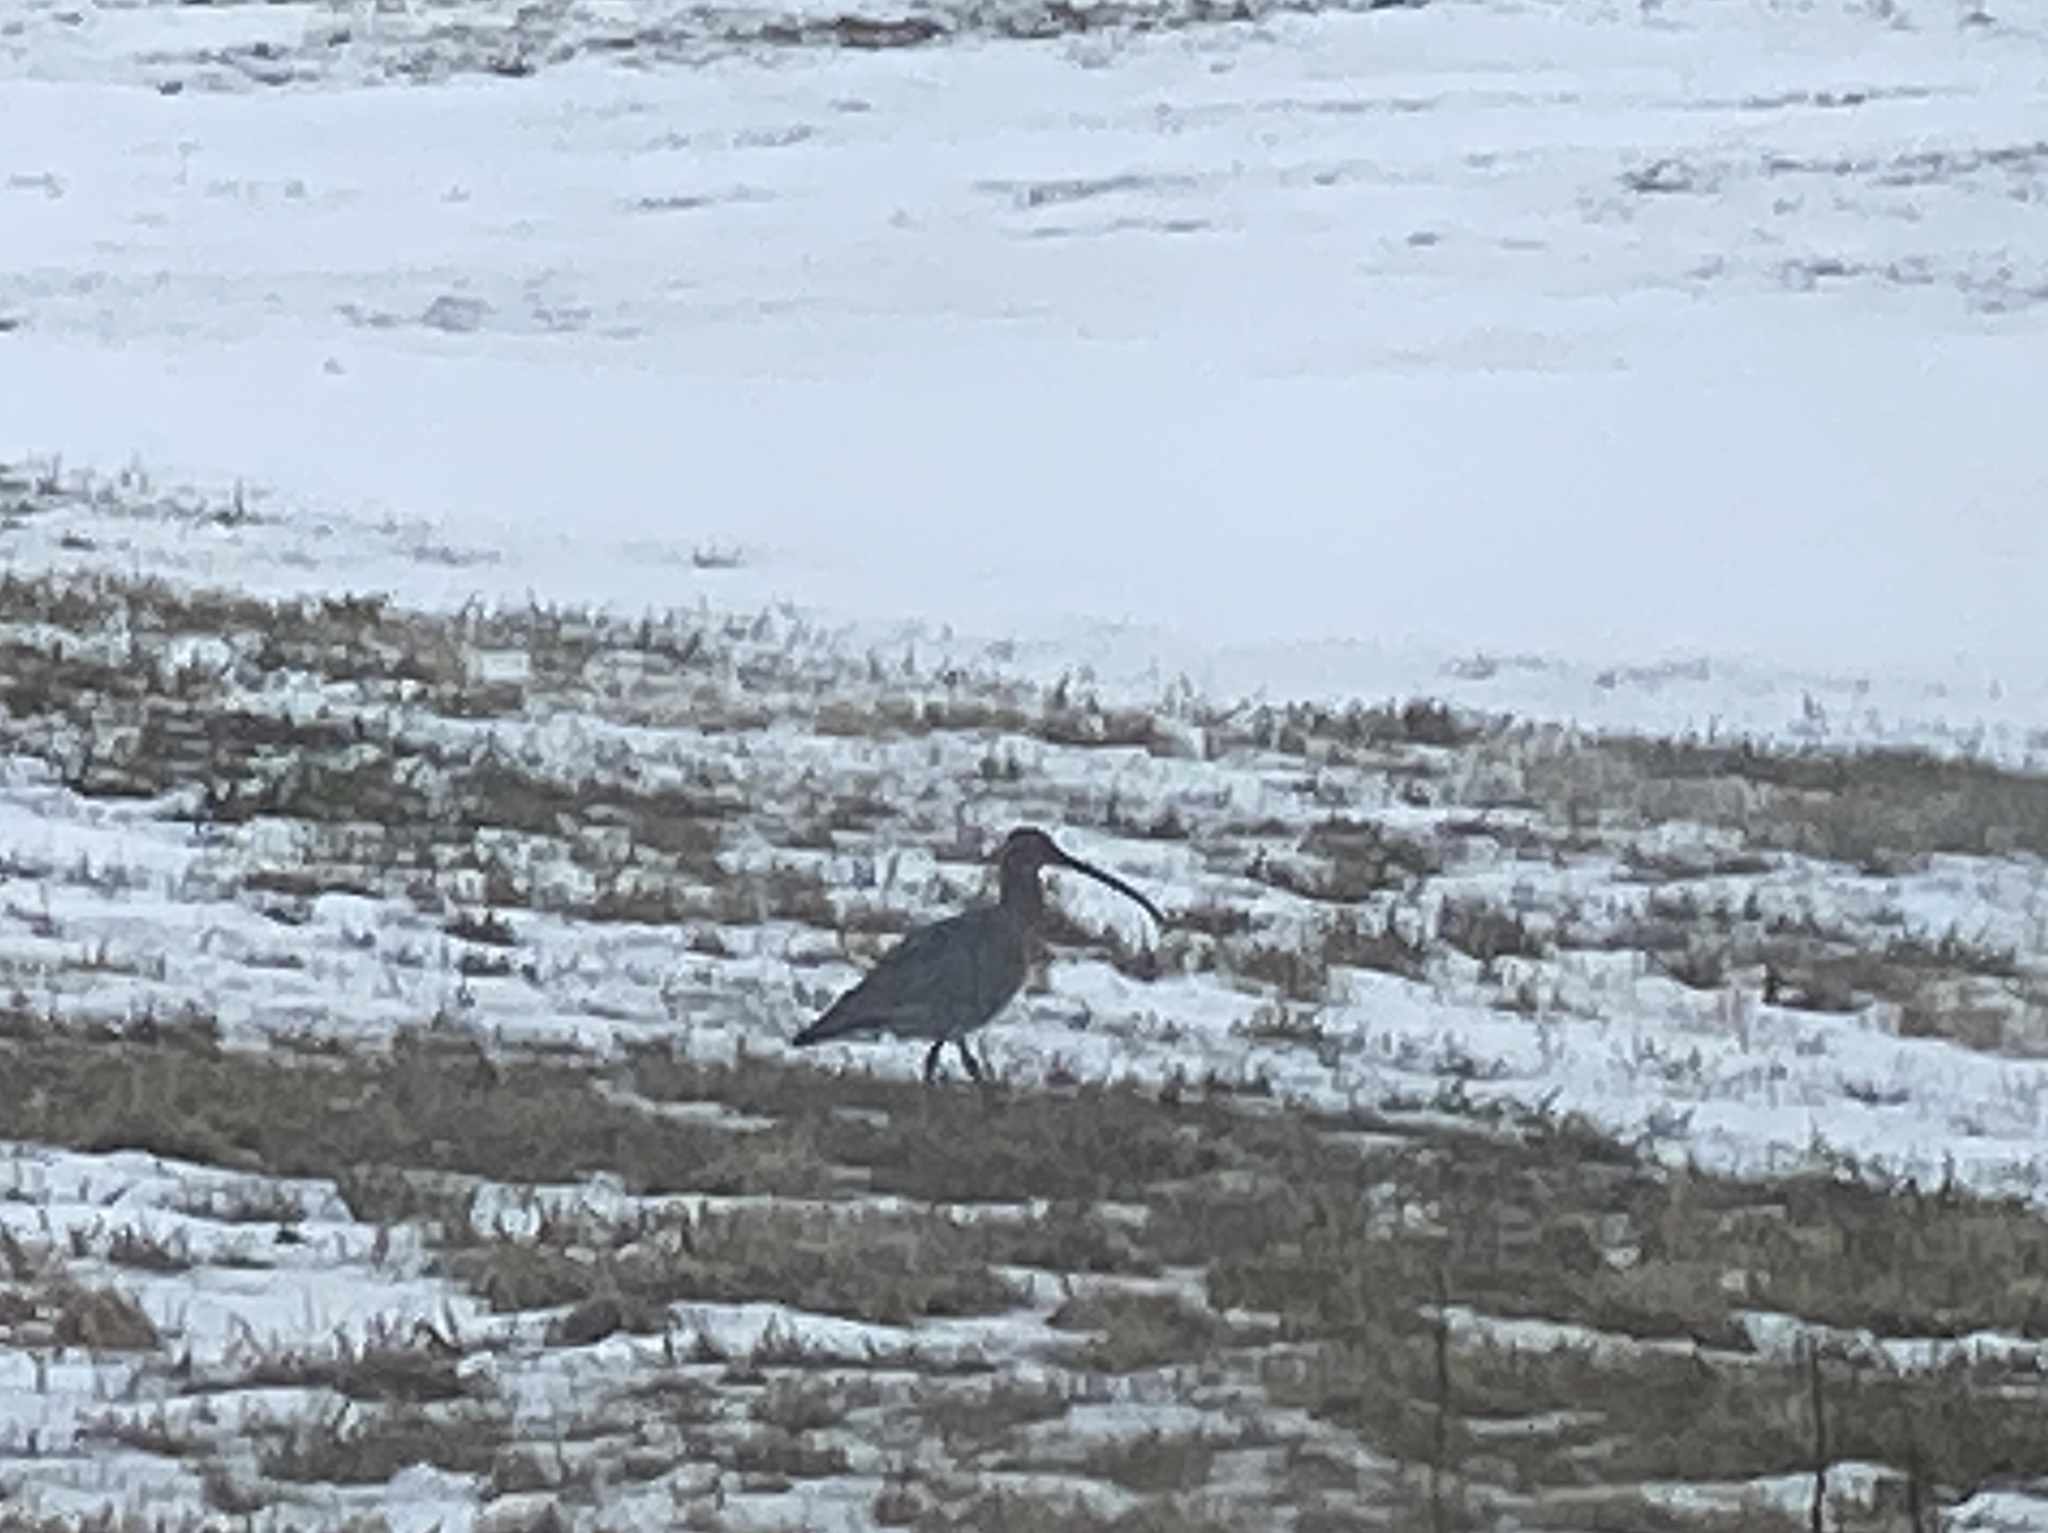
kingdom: Animalia
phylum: Chordata
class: Aves
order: Charadriiformes
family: Scolopacidae
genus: Numenius
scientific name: Numenius arquata
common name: Eurasian curlew
